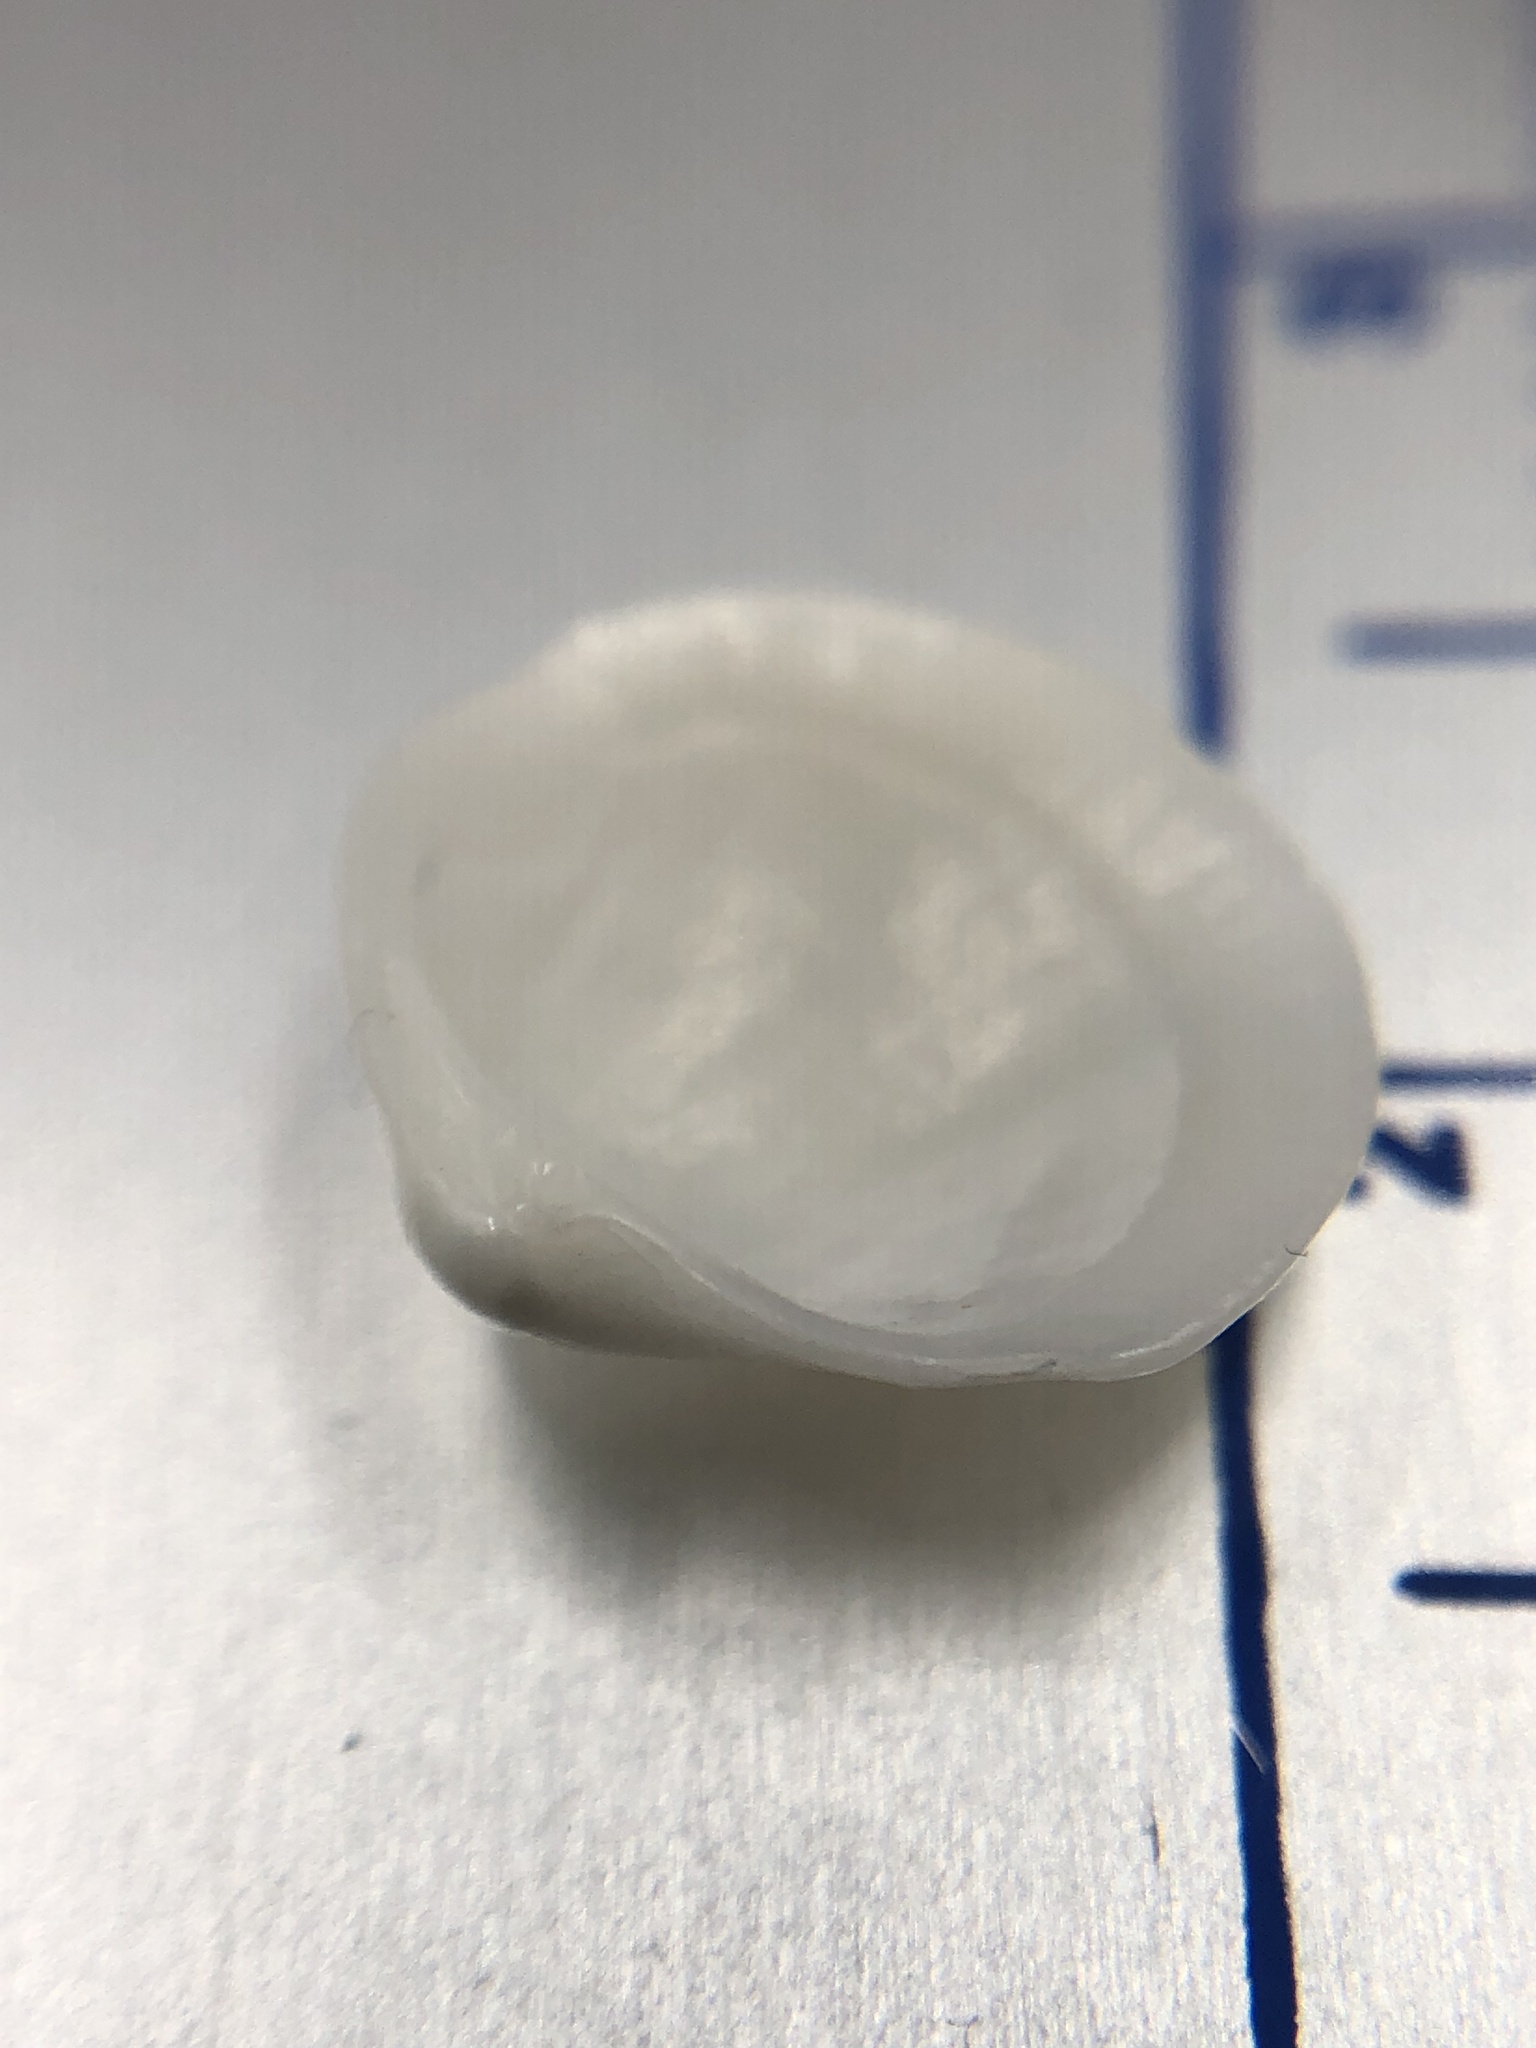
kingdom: Animalia
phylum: Mollusca
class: Bivalvia
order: Lucinida
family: Lucinidae
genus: Callucina
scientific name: Callucina keenae
